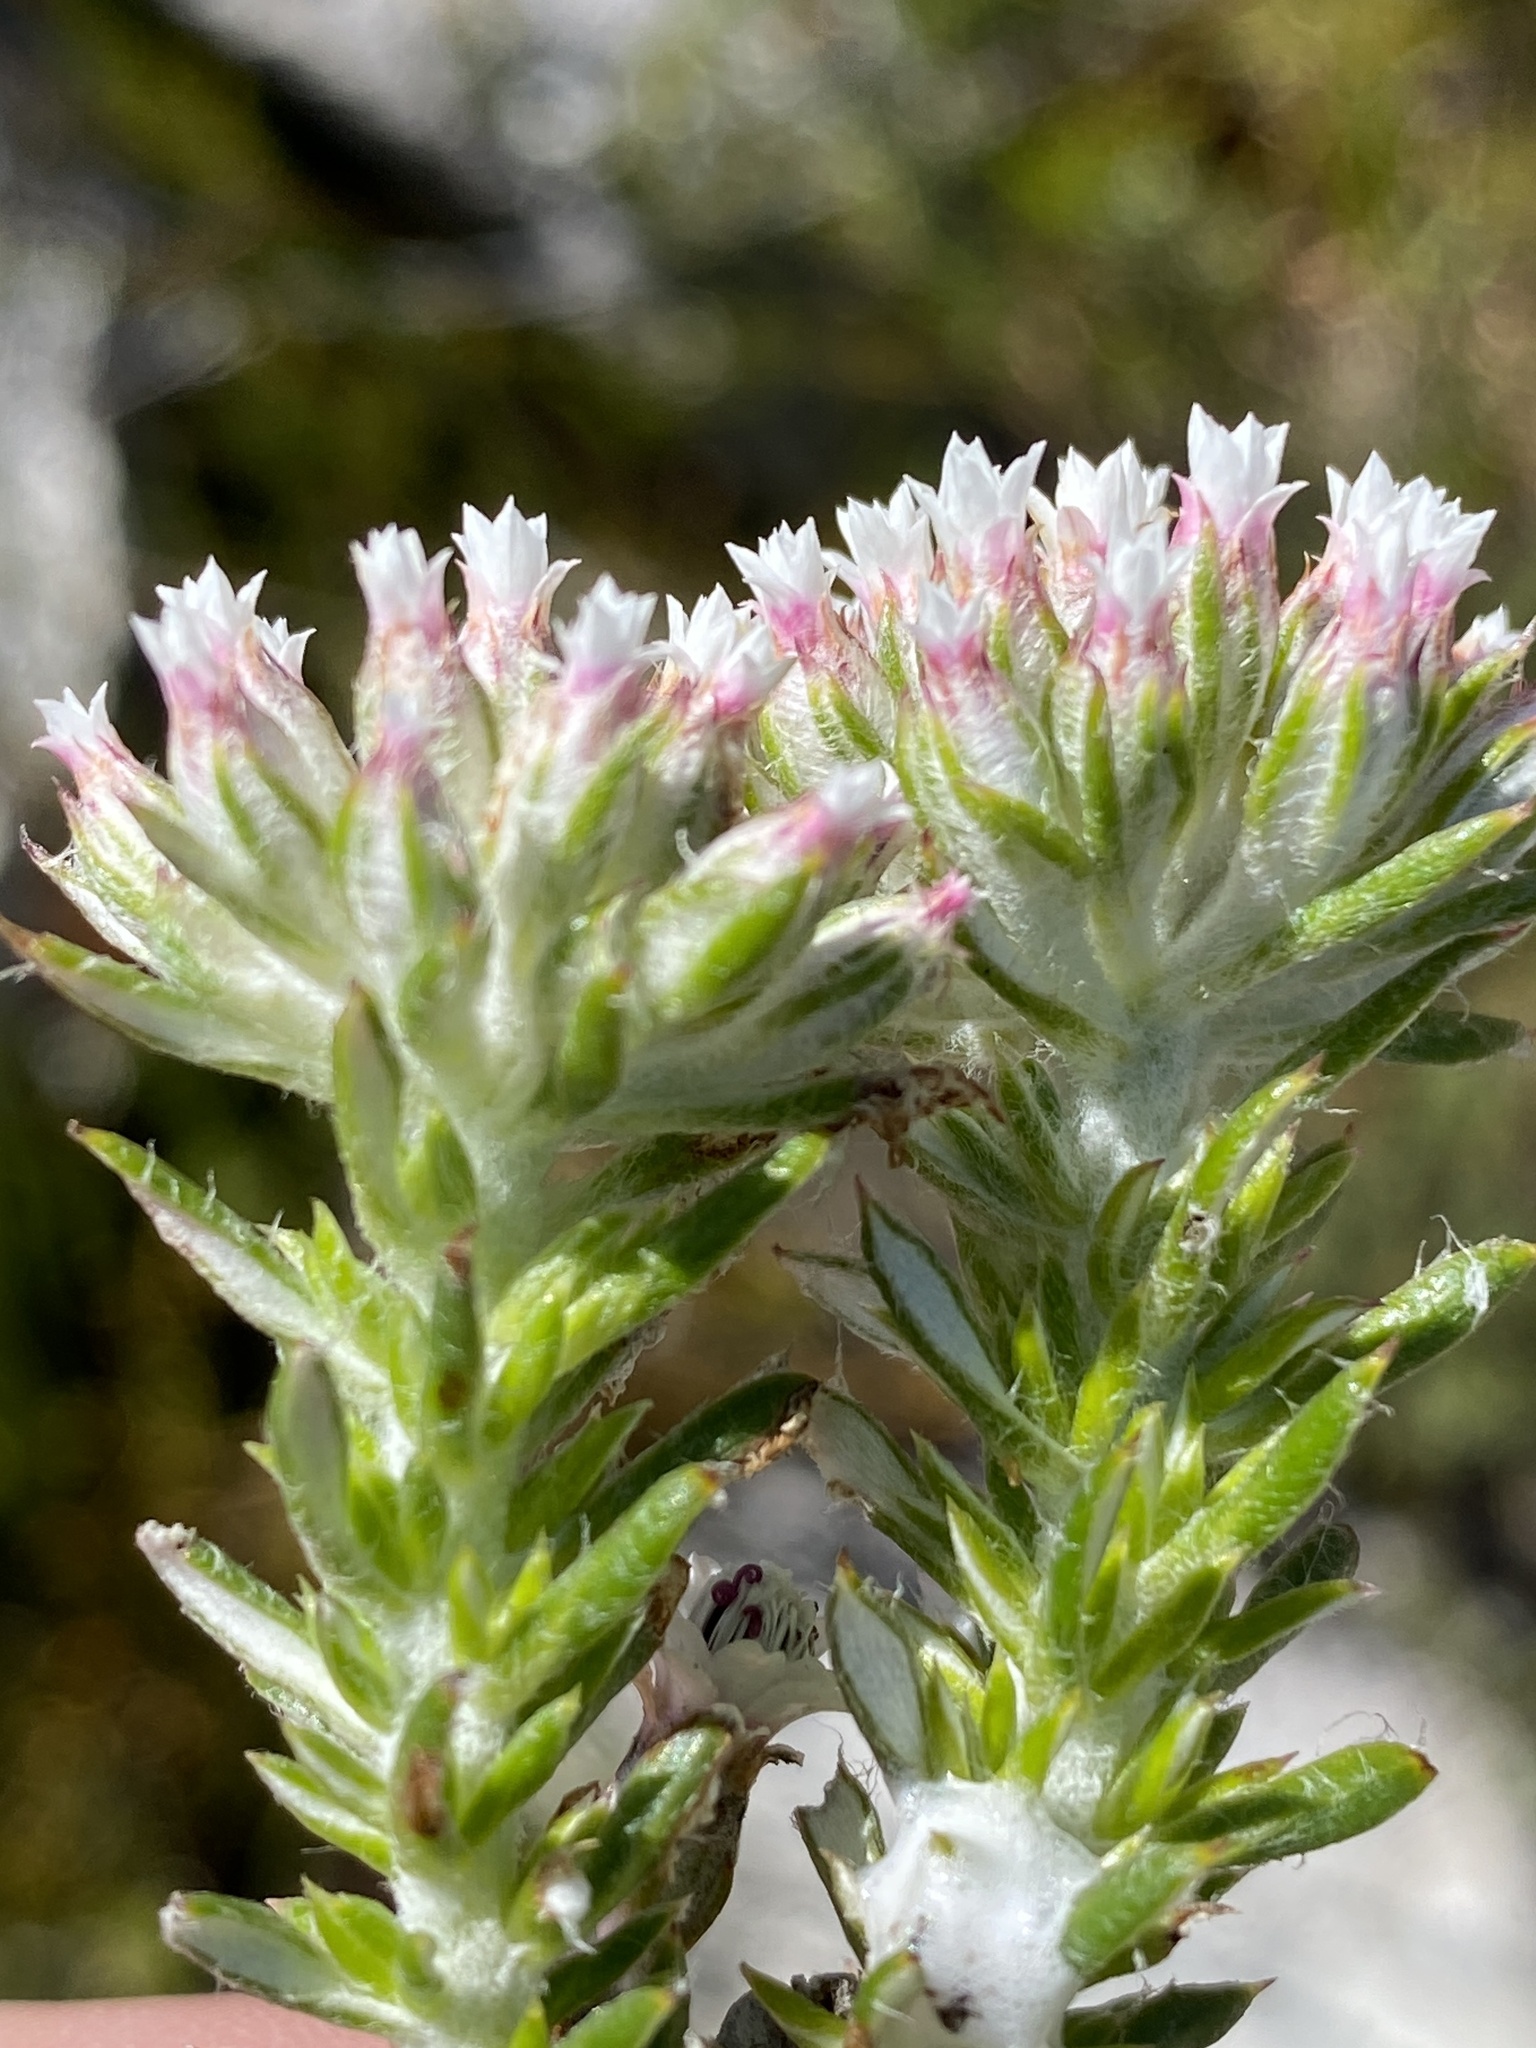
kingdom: Plantae
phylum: Tracheophyta
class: Magnoliopsida
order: Asterales
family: Asteraceae
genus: Metalasia
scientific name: Metalasia lichtensteinii
